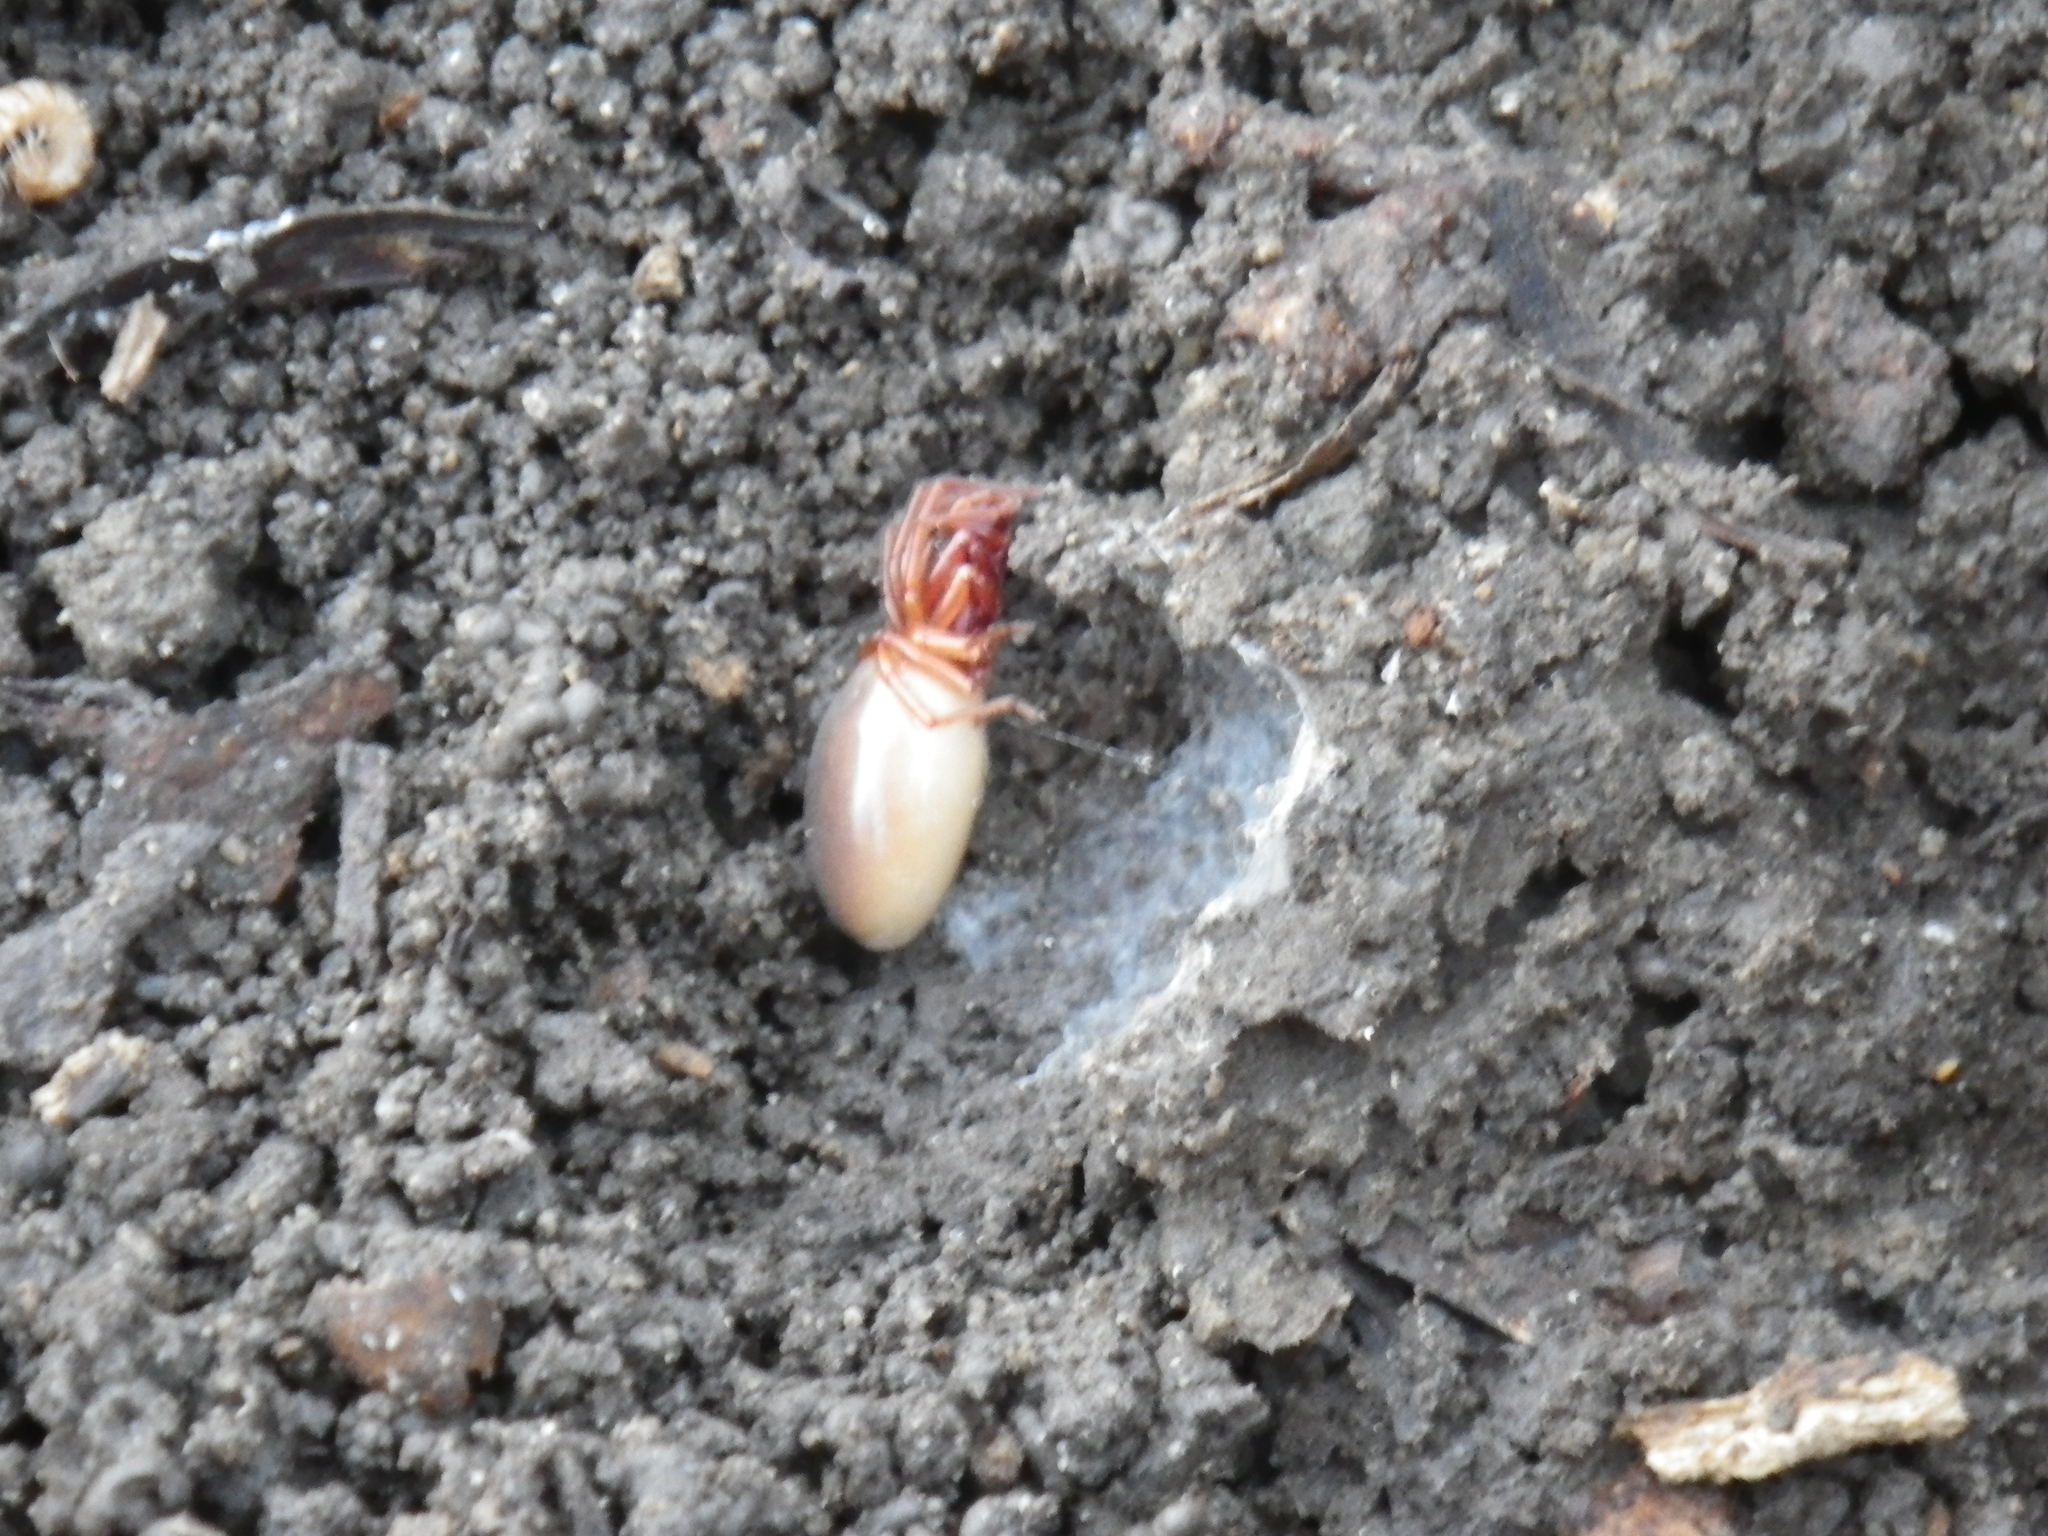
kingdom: Animalia
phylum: Arthropoda
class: Arachnida
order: Araneae
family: Dysderidae
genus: Dysdera
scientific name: Dysdera crocata
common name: Woodlouse spider
